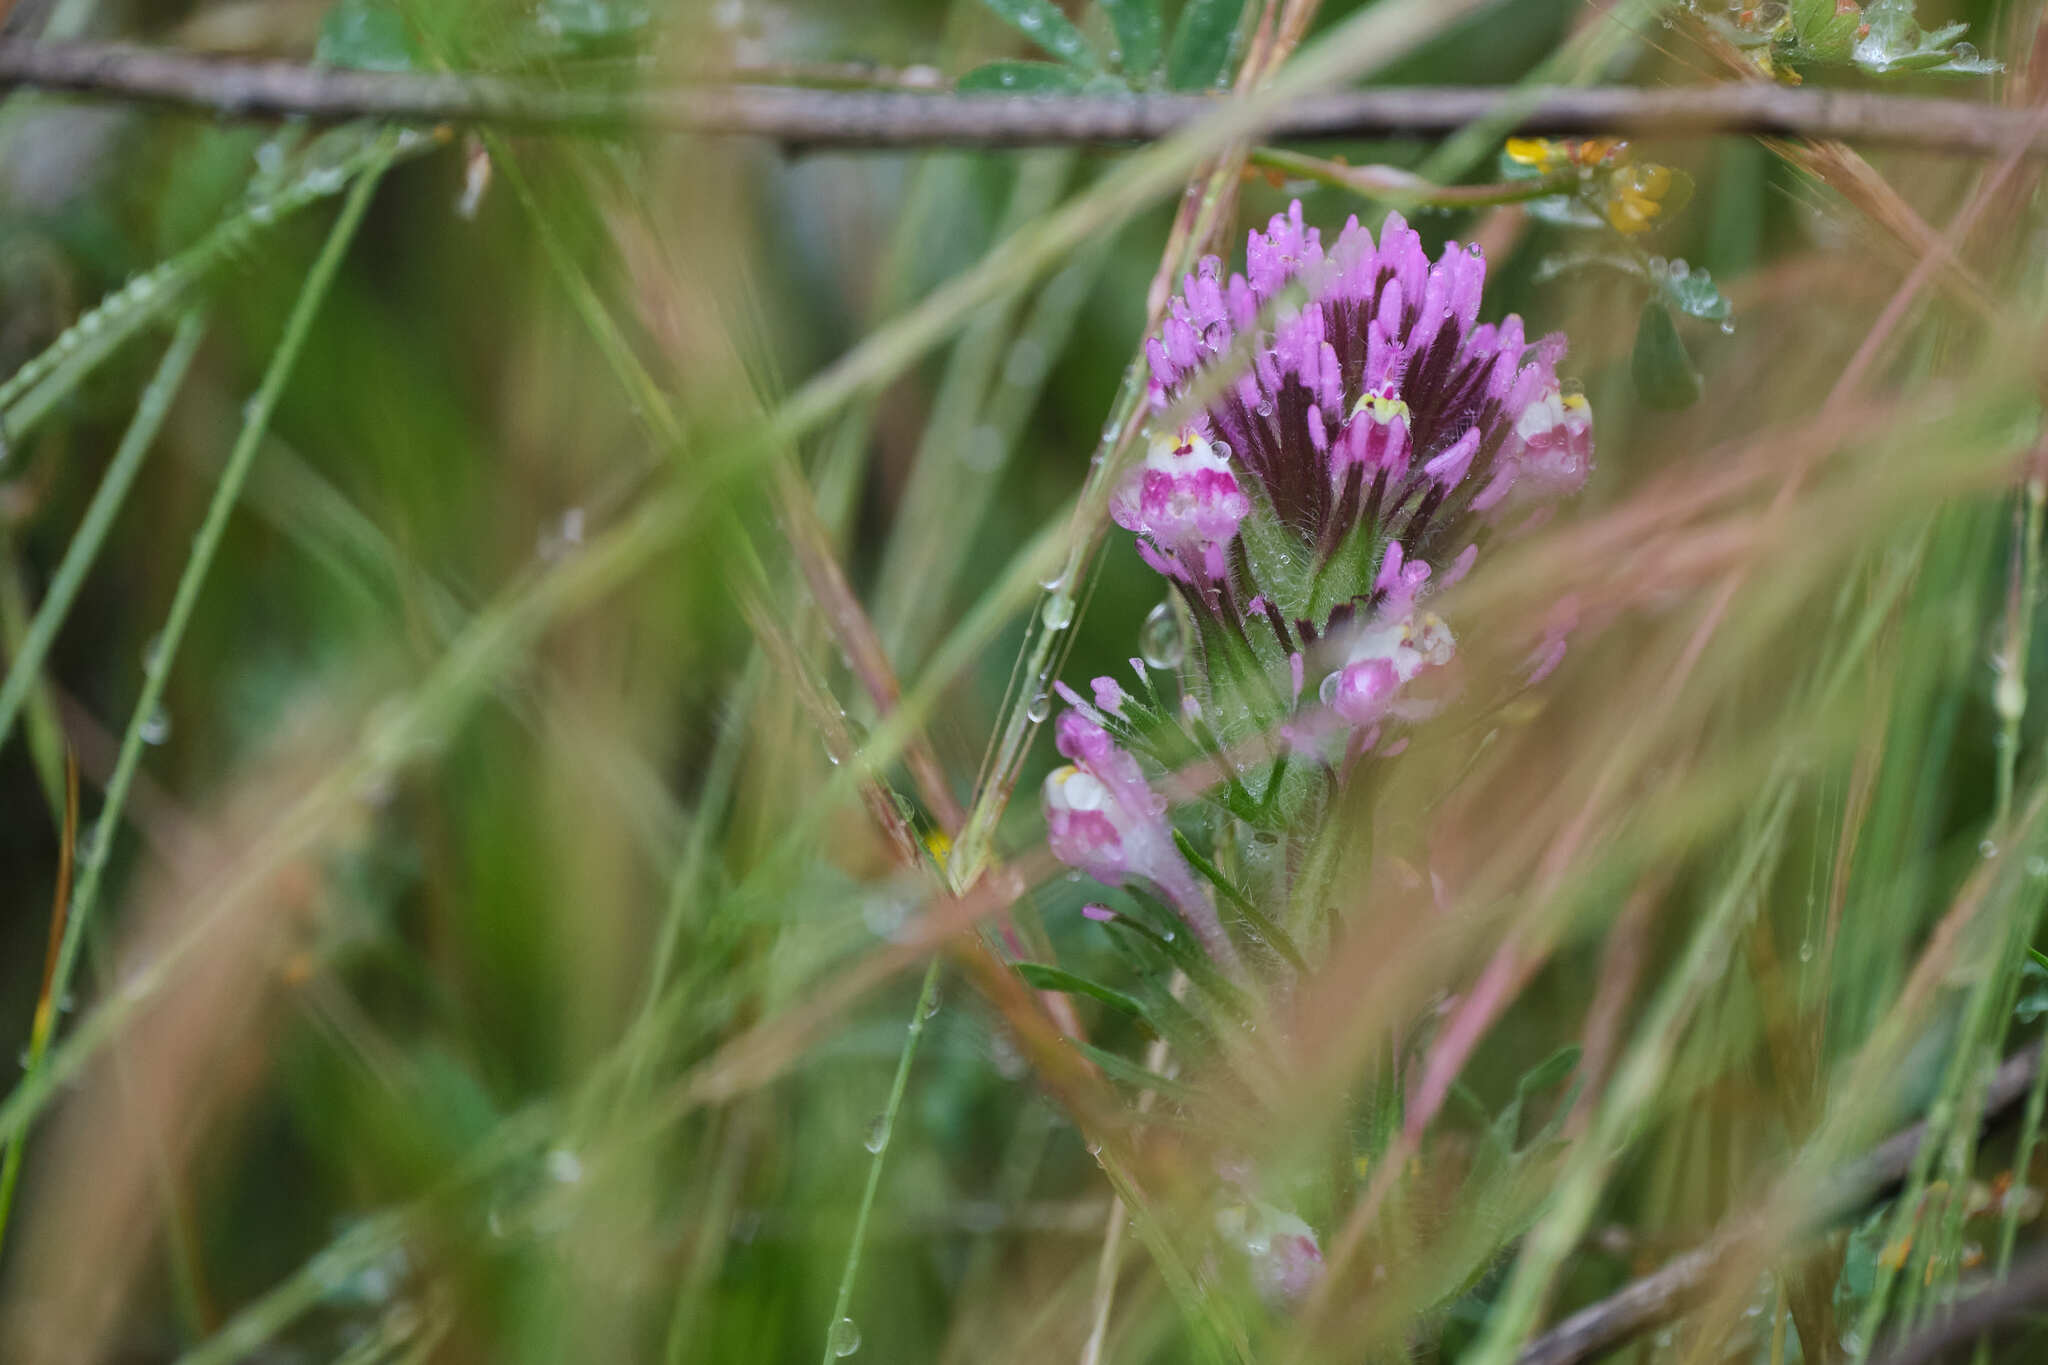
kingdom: Plantae
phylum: Tracheophyta
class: Magnoliopsida
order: Lamiales
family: Orobanchaceae
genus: Castilleja
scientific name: Castilleja exserta
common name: Purple owl-clover
